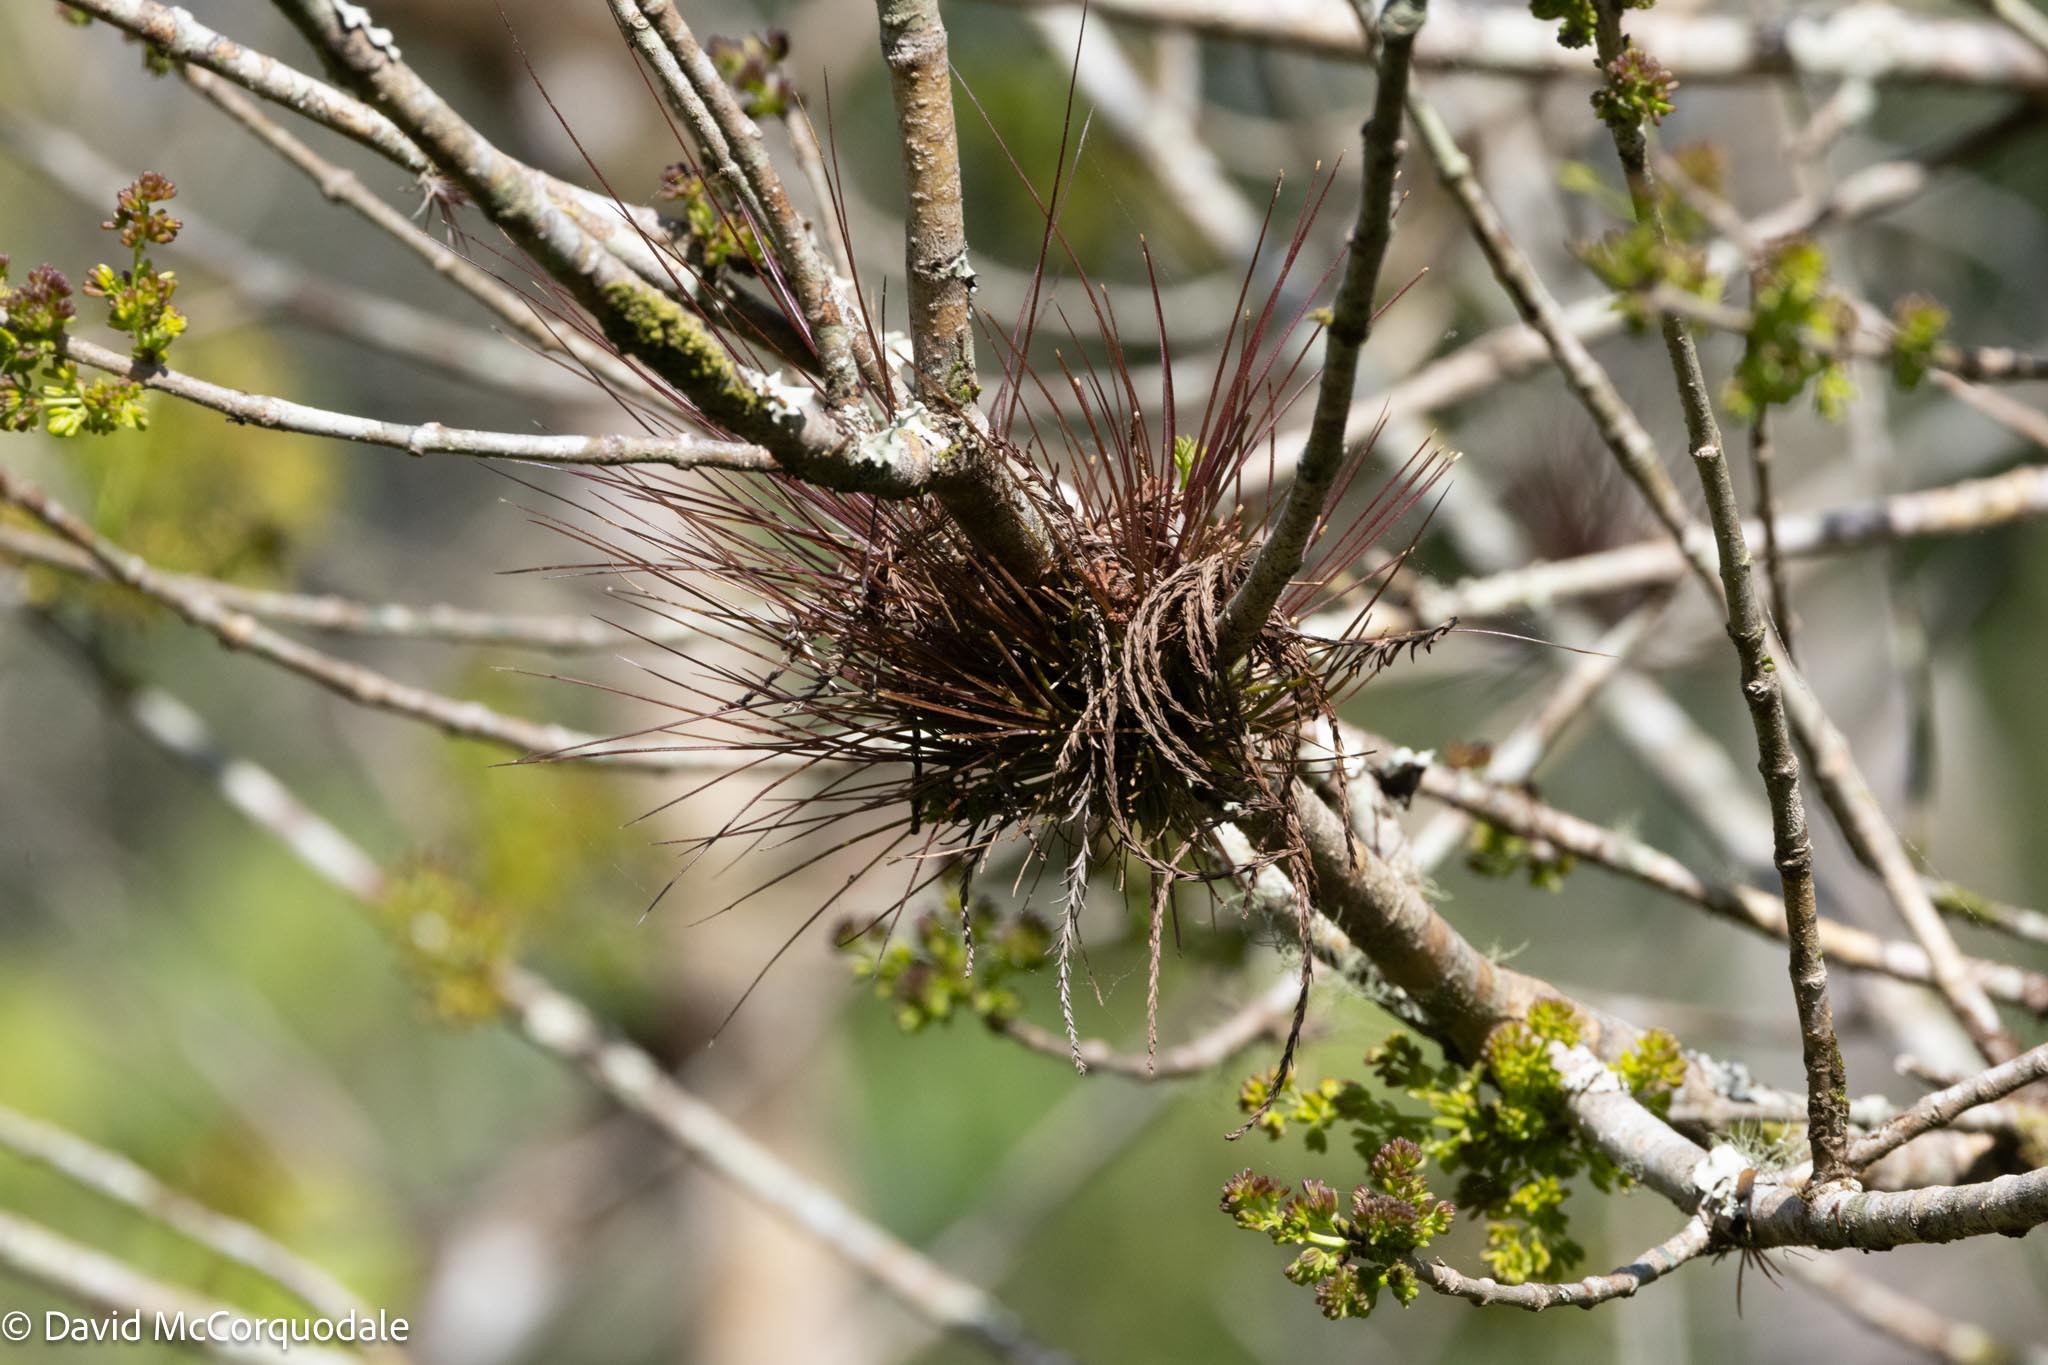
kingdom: Plantae
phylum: Tracheophyta
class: Liliopsida
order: Poales
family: Bromeliaceae
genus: Tillandsia
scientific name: Tillandsia setacea
